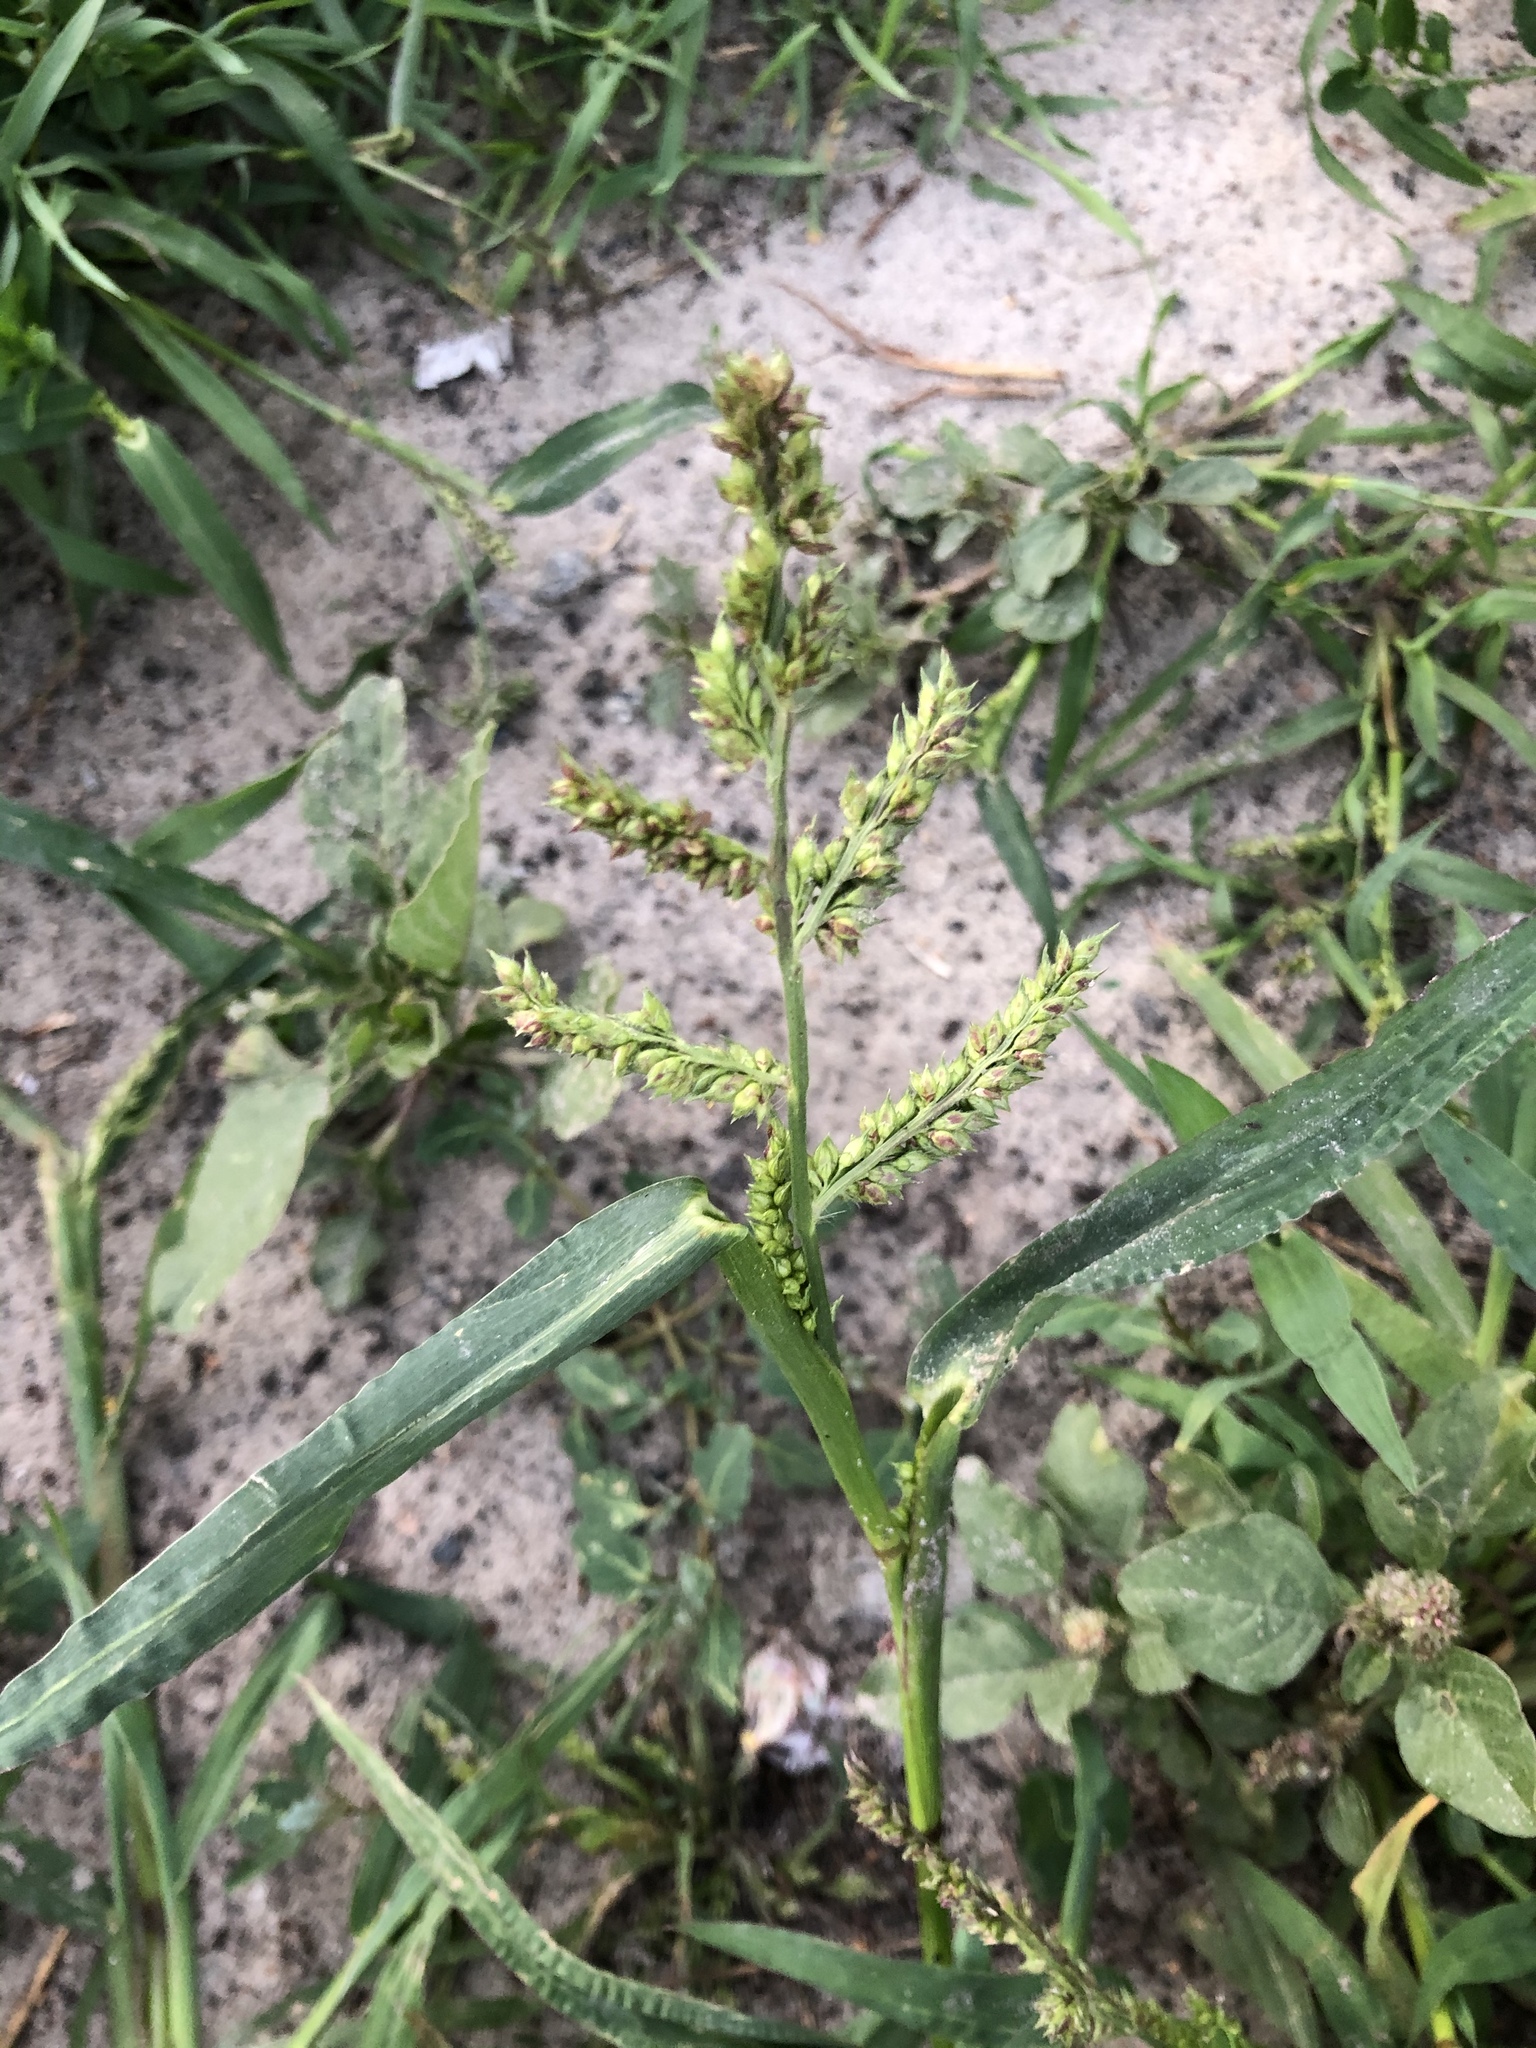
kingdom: Plantae
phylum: Tracheophyta
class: Liliopsida
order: Poales
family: Poaceae
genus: Echinochloa
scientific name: Echinochloa crus-galli
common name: Cockspur
